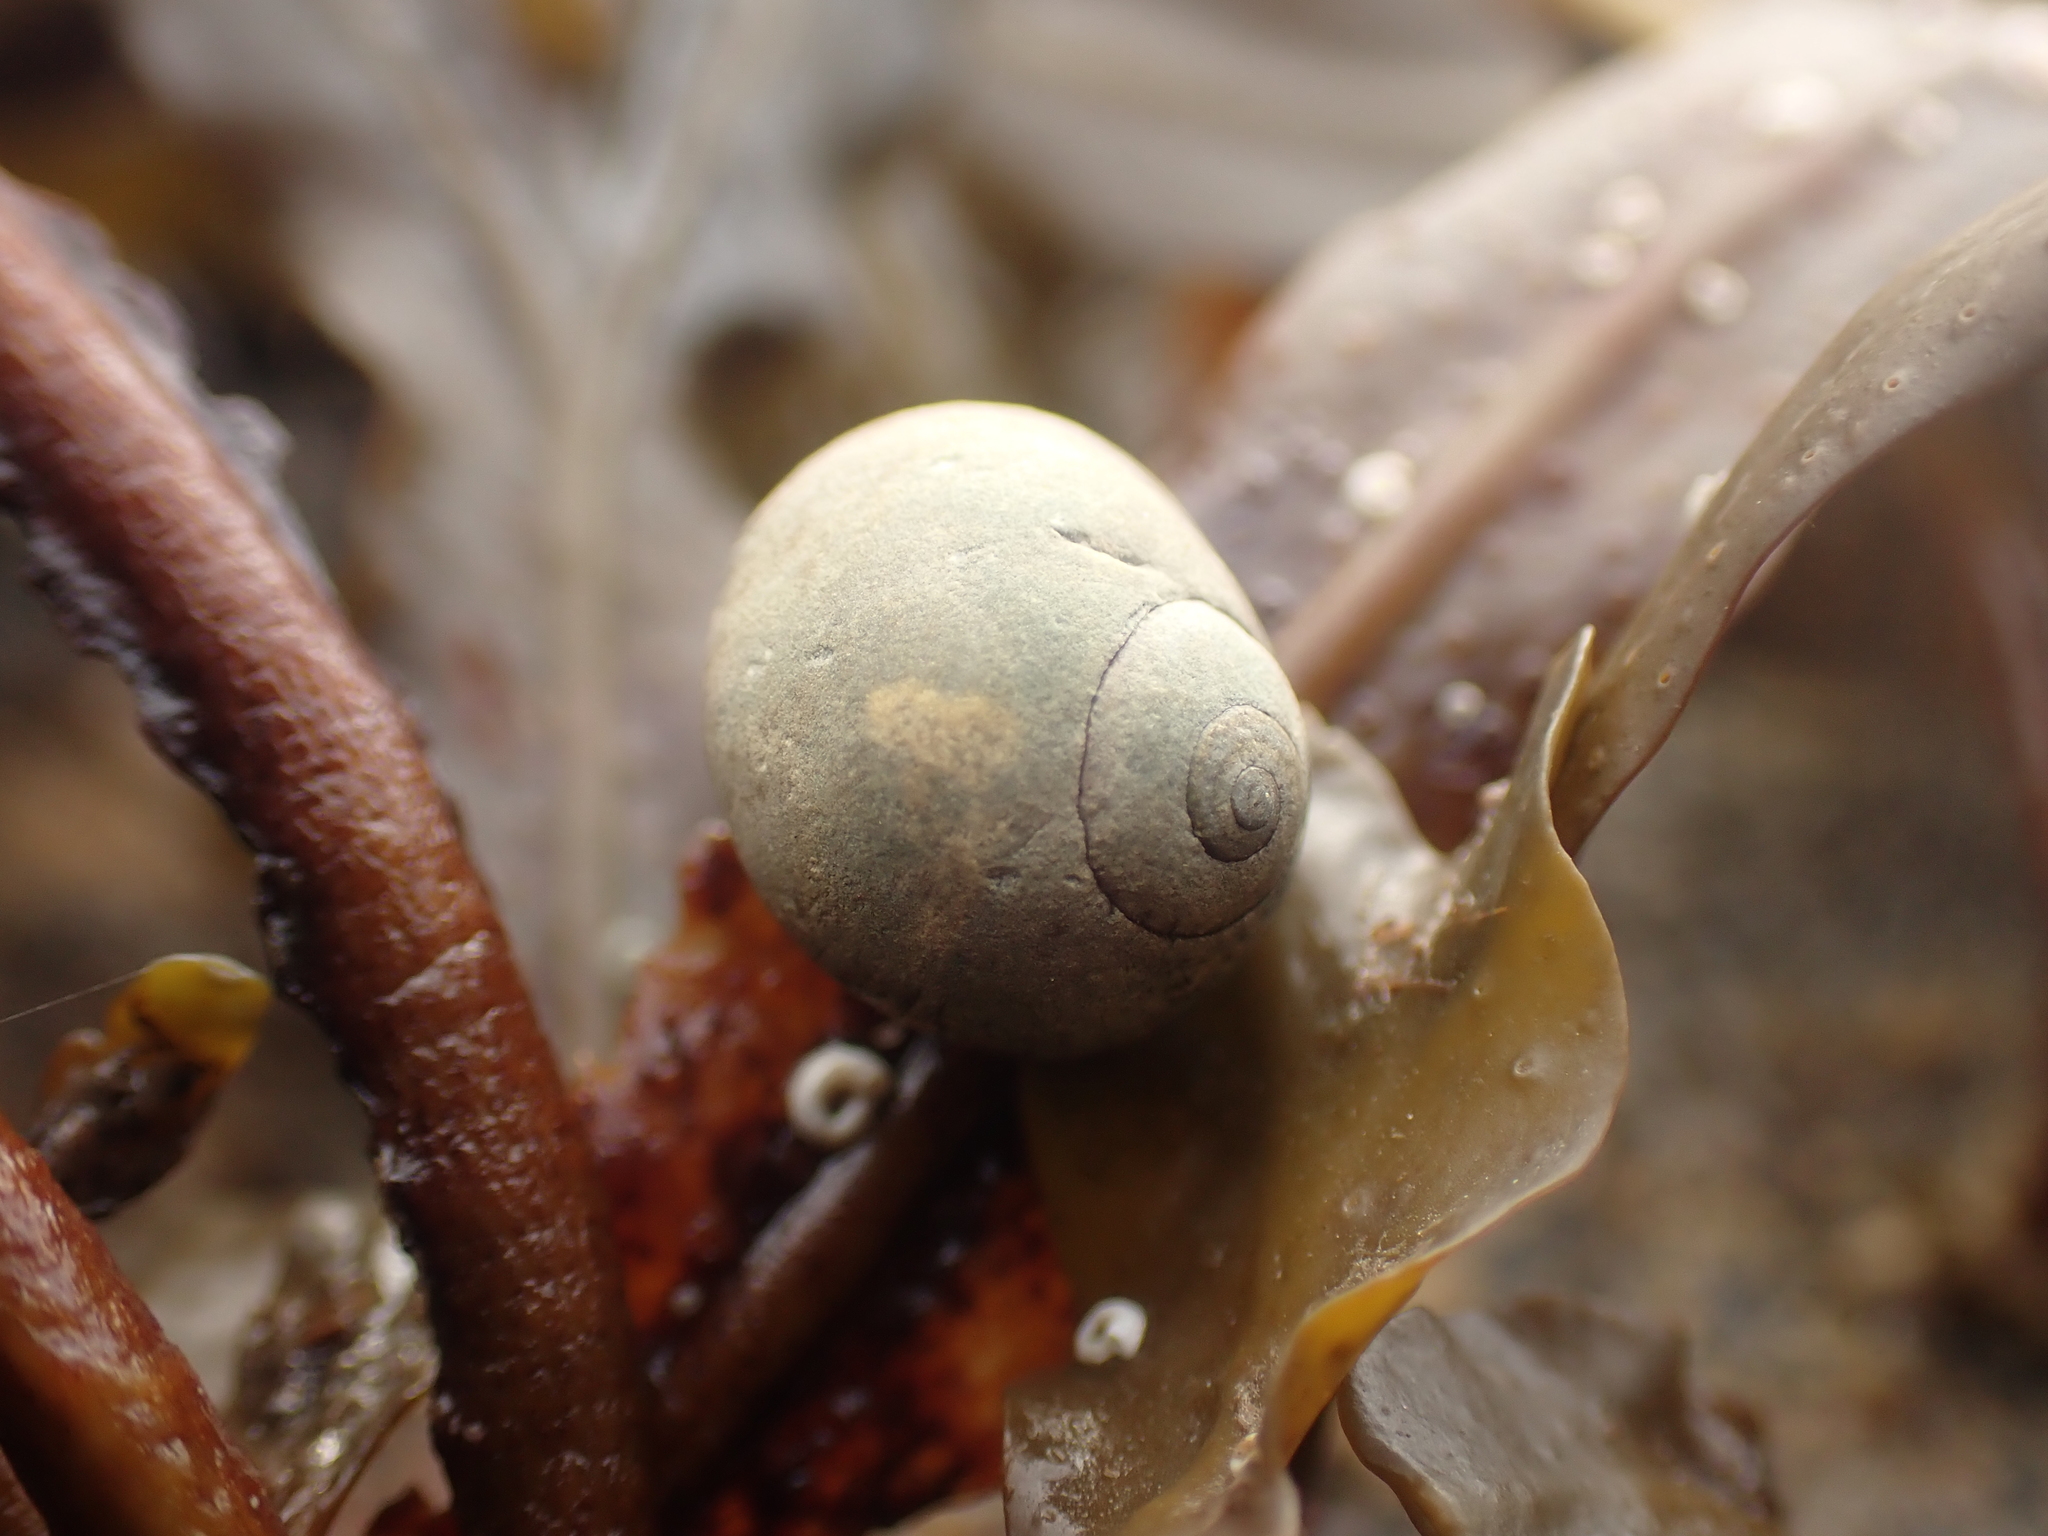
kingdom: Animalia
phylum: Mollusca
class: Gastropoda
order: Littorinimorpha
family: Littorinidae
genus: Littorina
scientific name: Littorina obtusata
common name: Flat periwinkle
